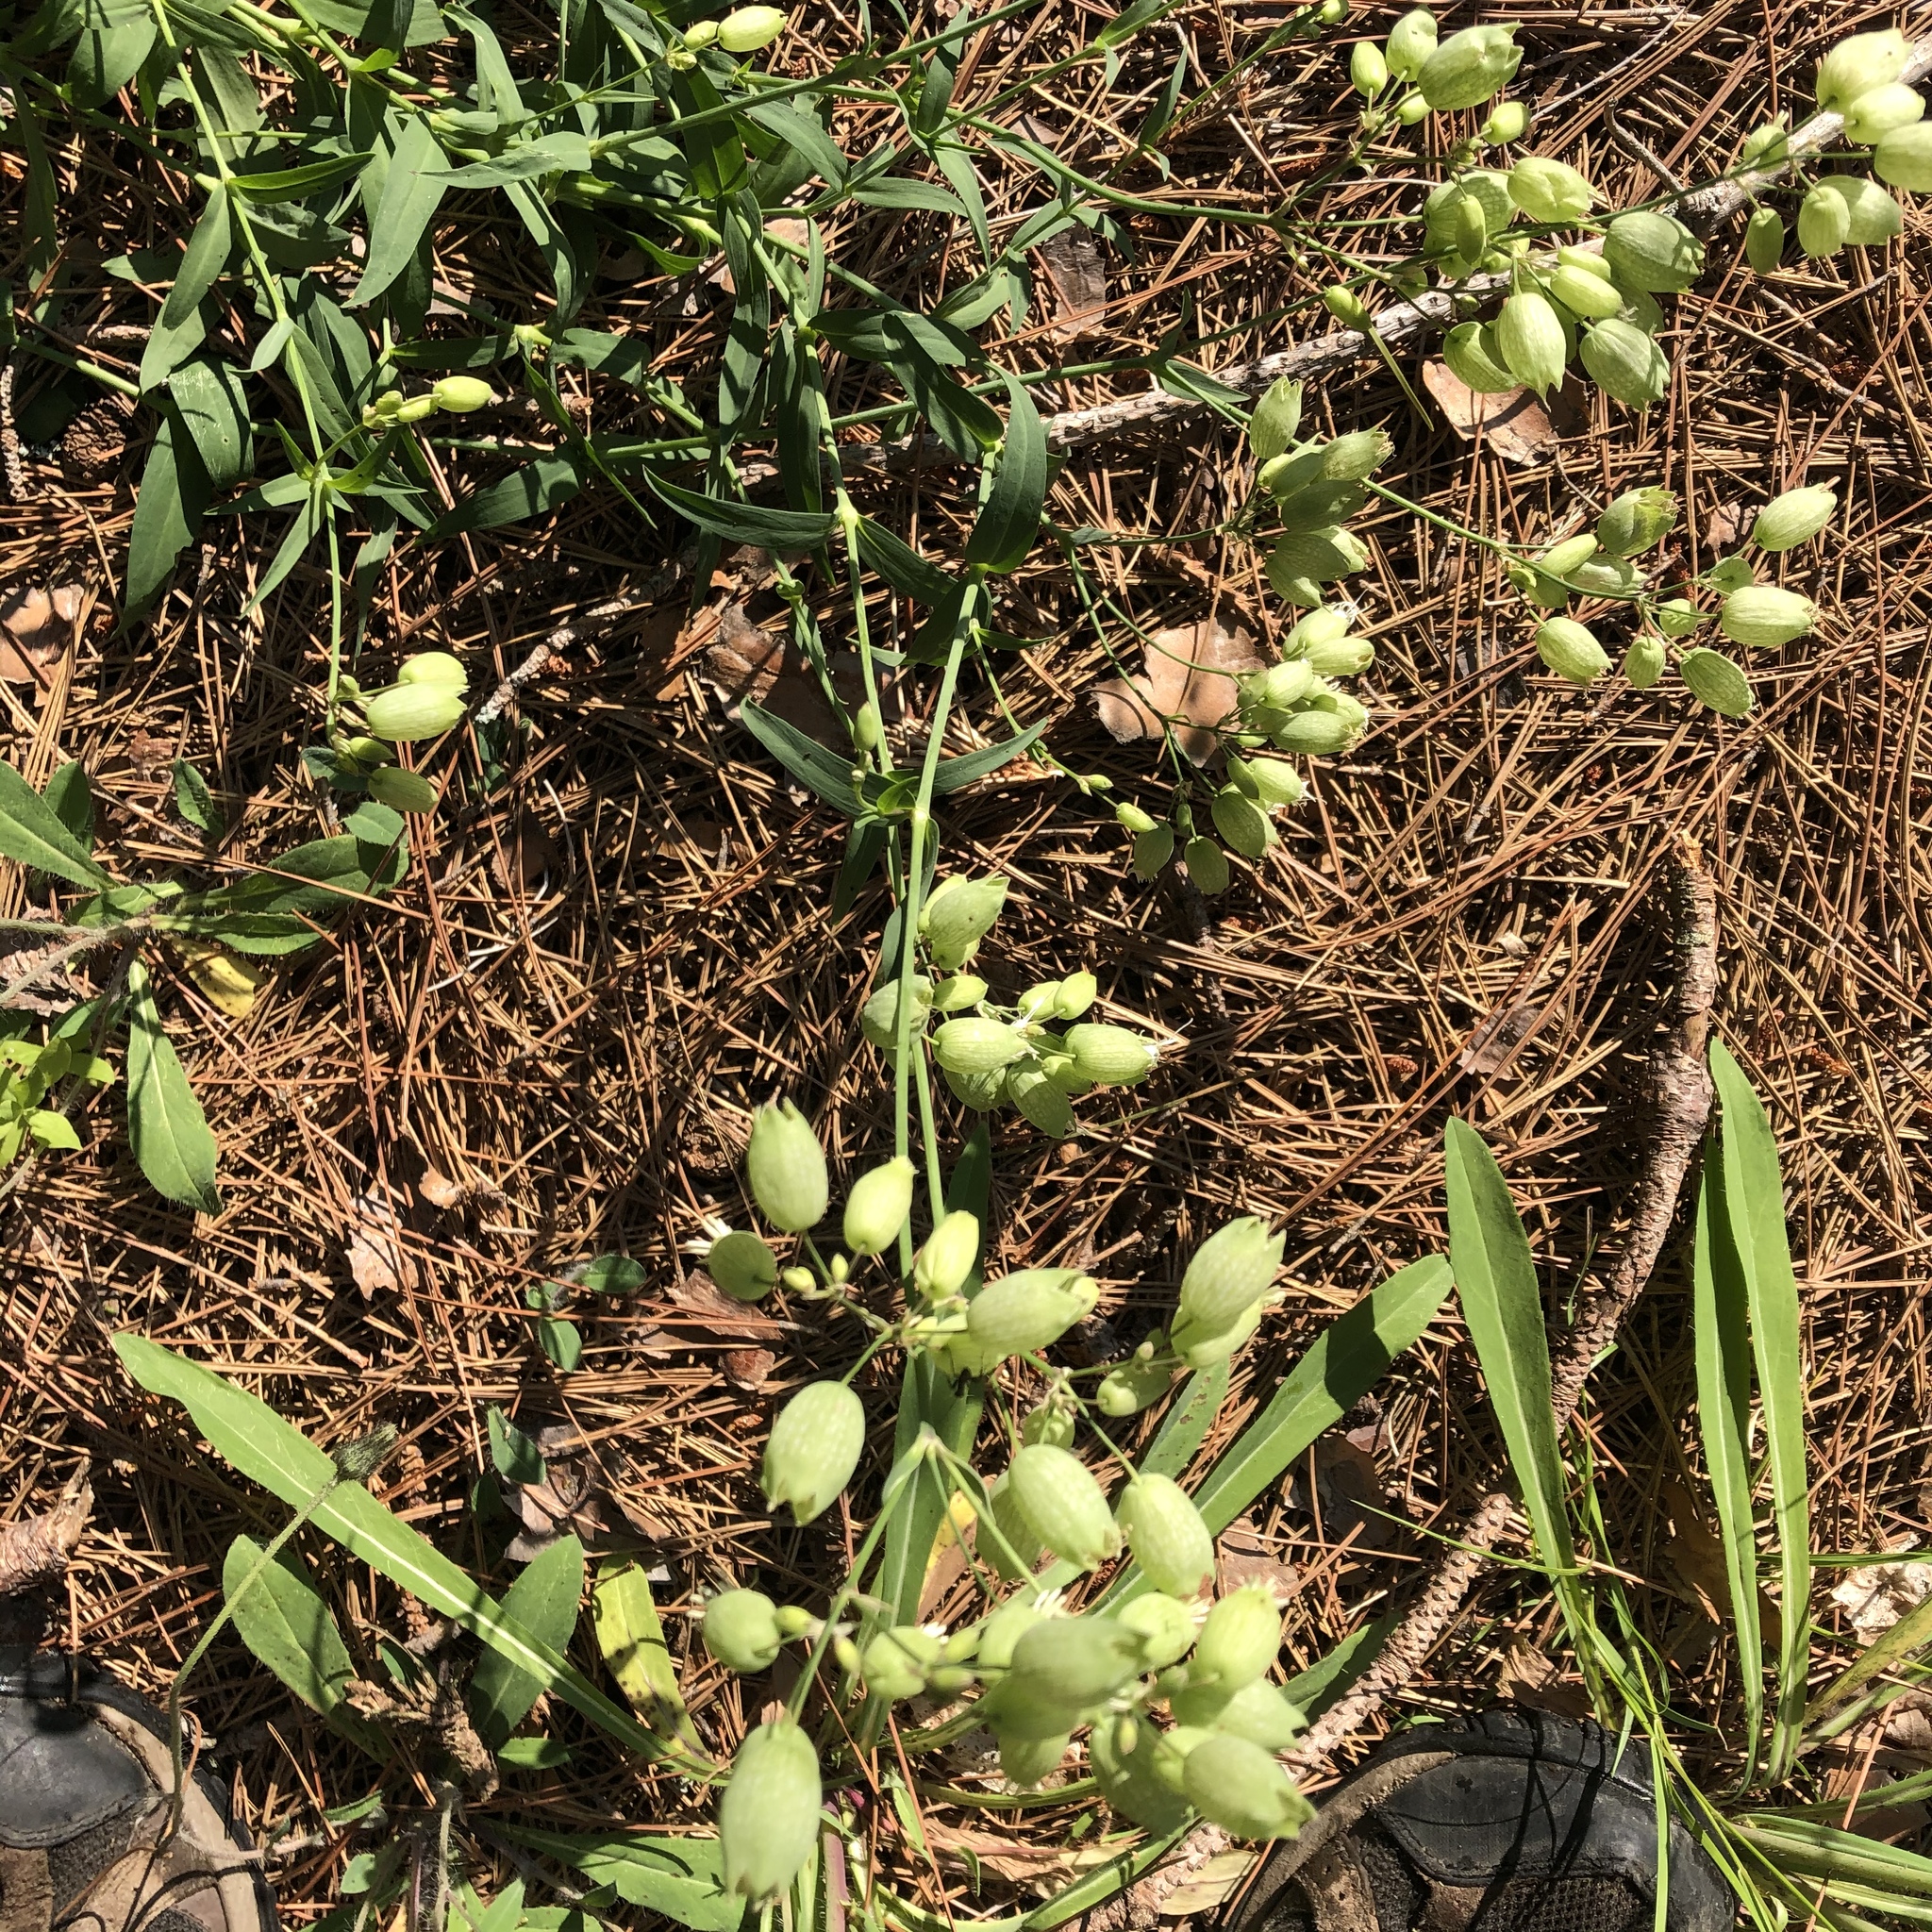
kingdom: Plantae
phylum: Tracheophyta
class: Magnoliopsida
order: Caryophyllales
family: Caryophyllaceae
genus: Silene
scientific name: Silene vulgaris
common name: Bladder campion
